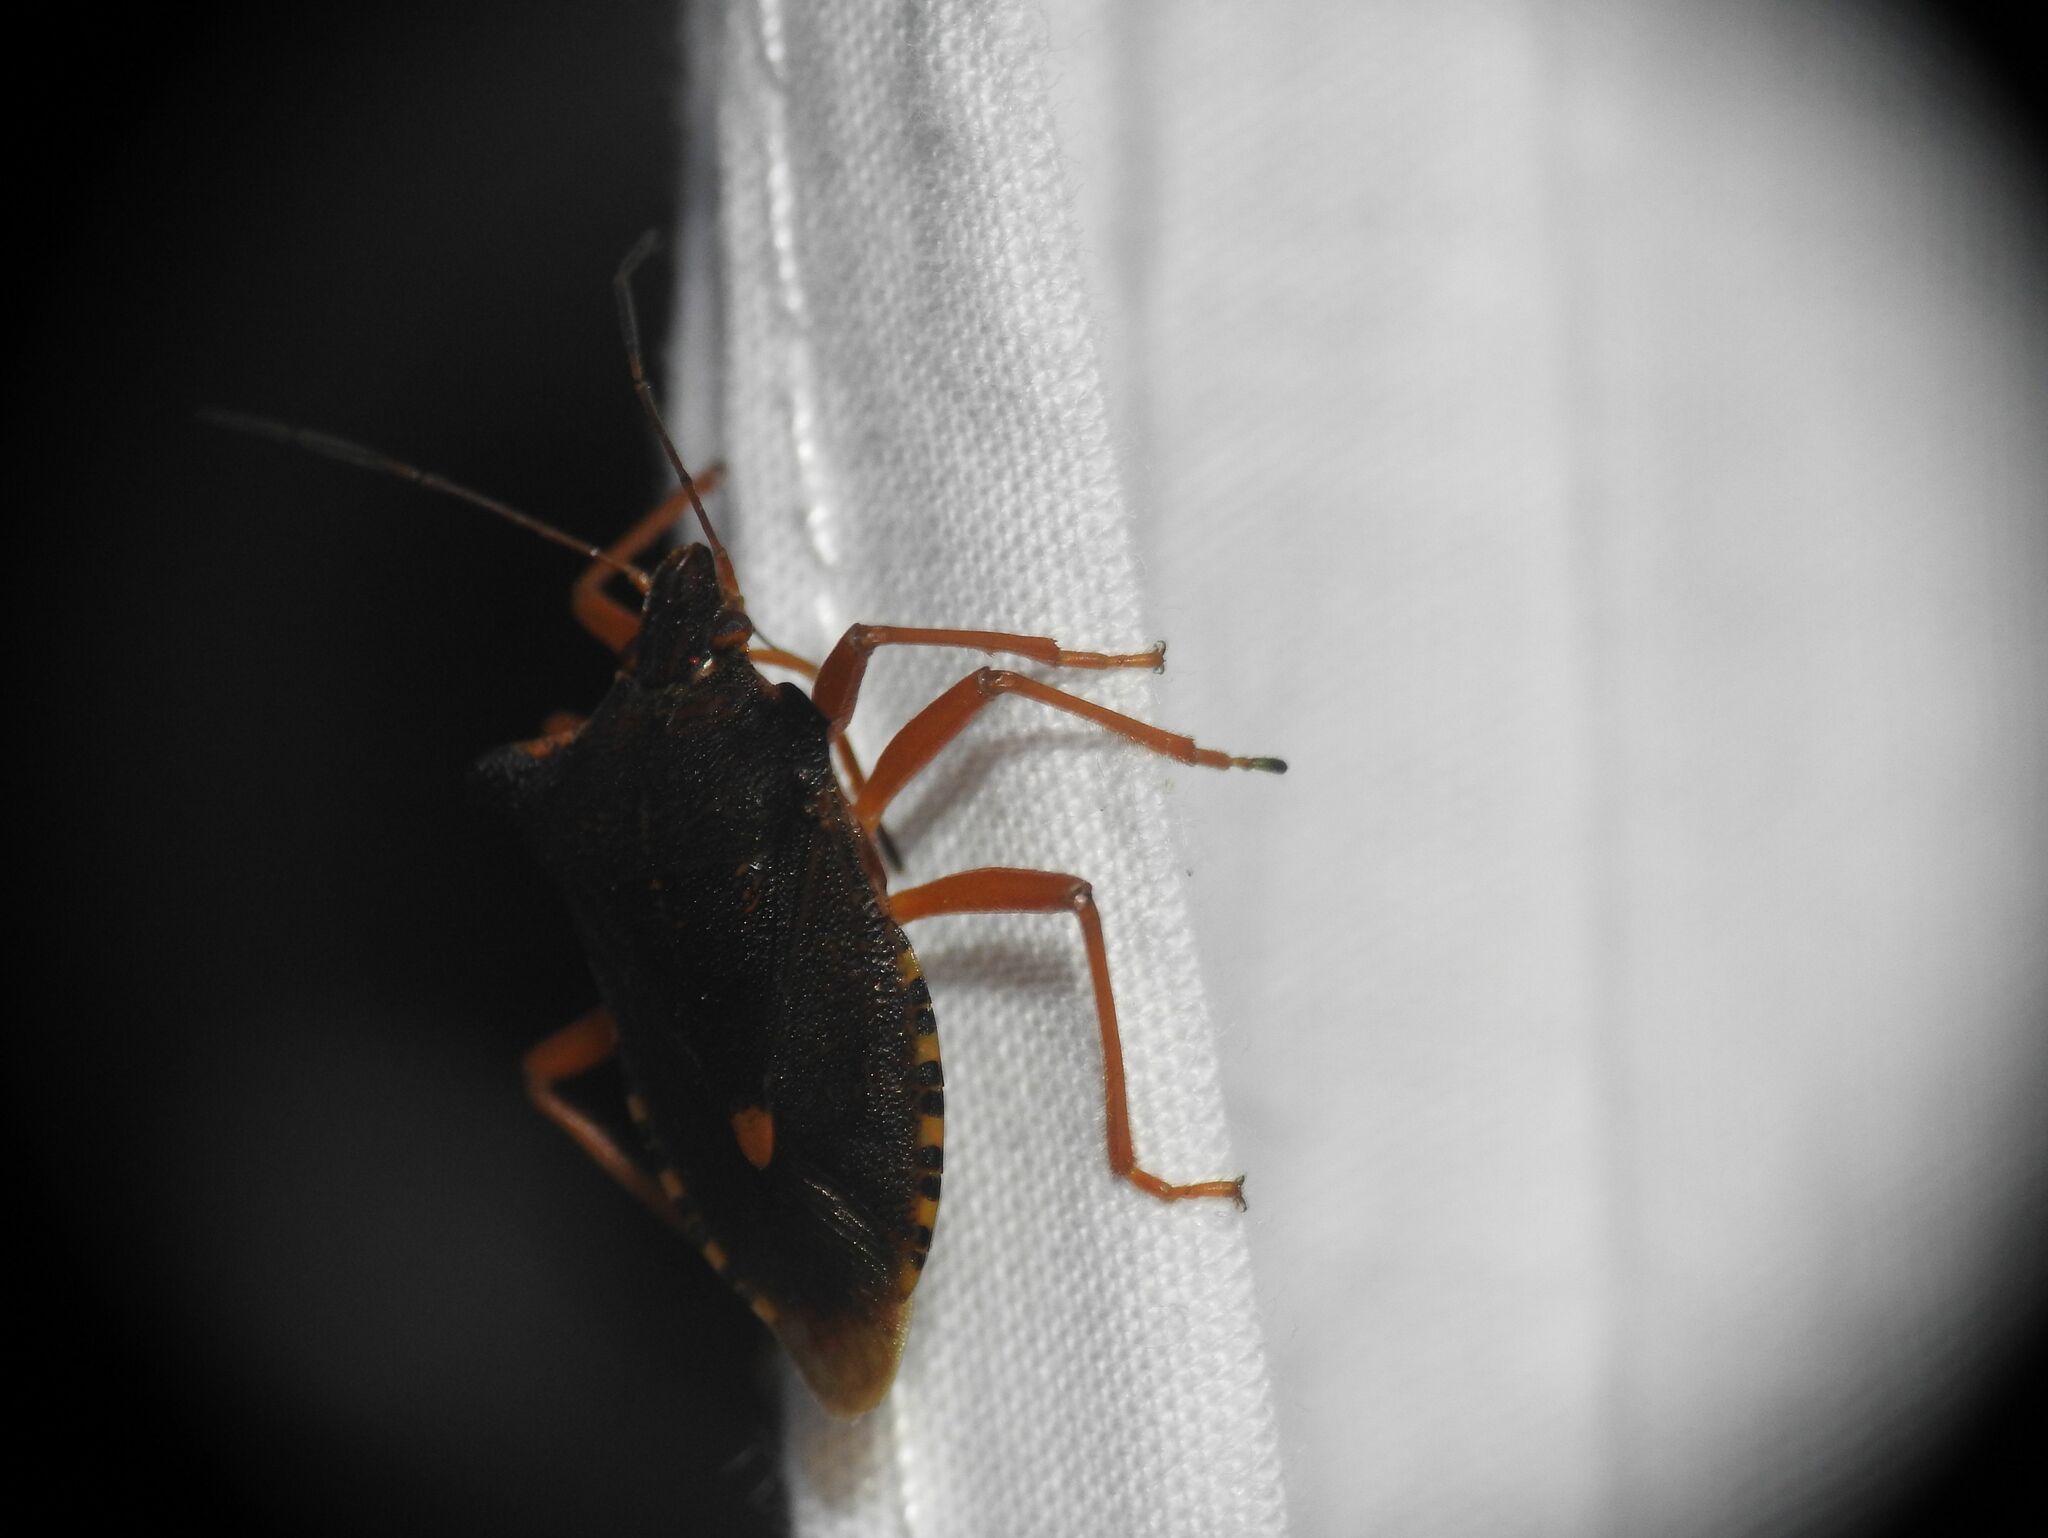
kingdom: Animalia
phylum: Arthropoda
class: Insecta
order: Hemiptera
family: Pentatomidae
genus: Pentatoma
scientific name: Pentatoma rufipes
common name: Forest bug
